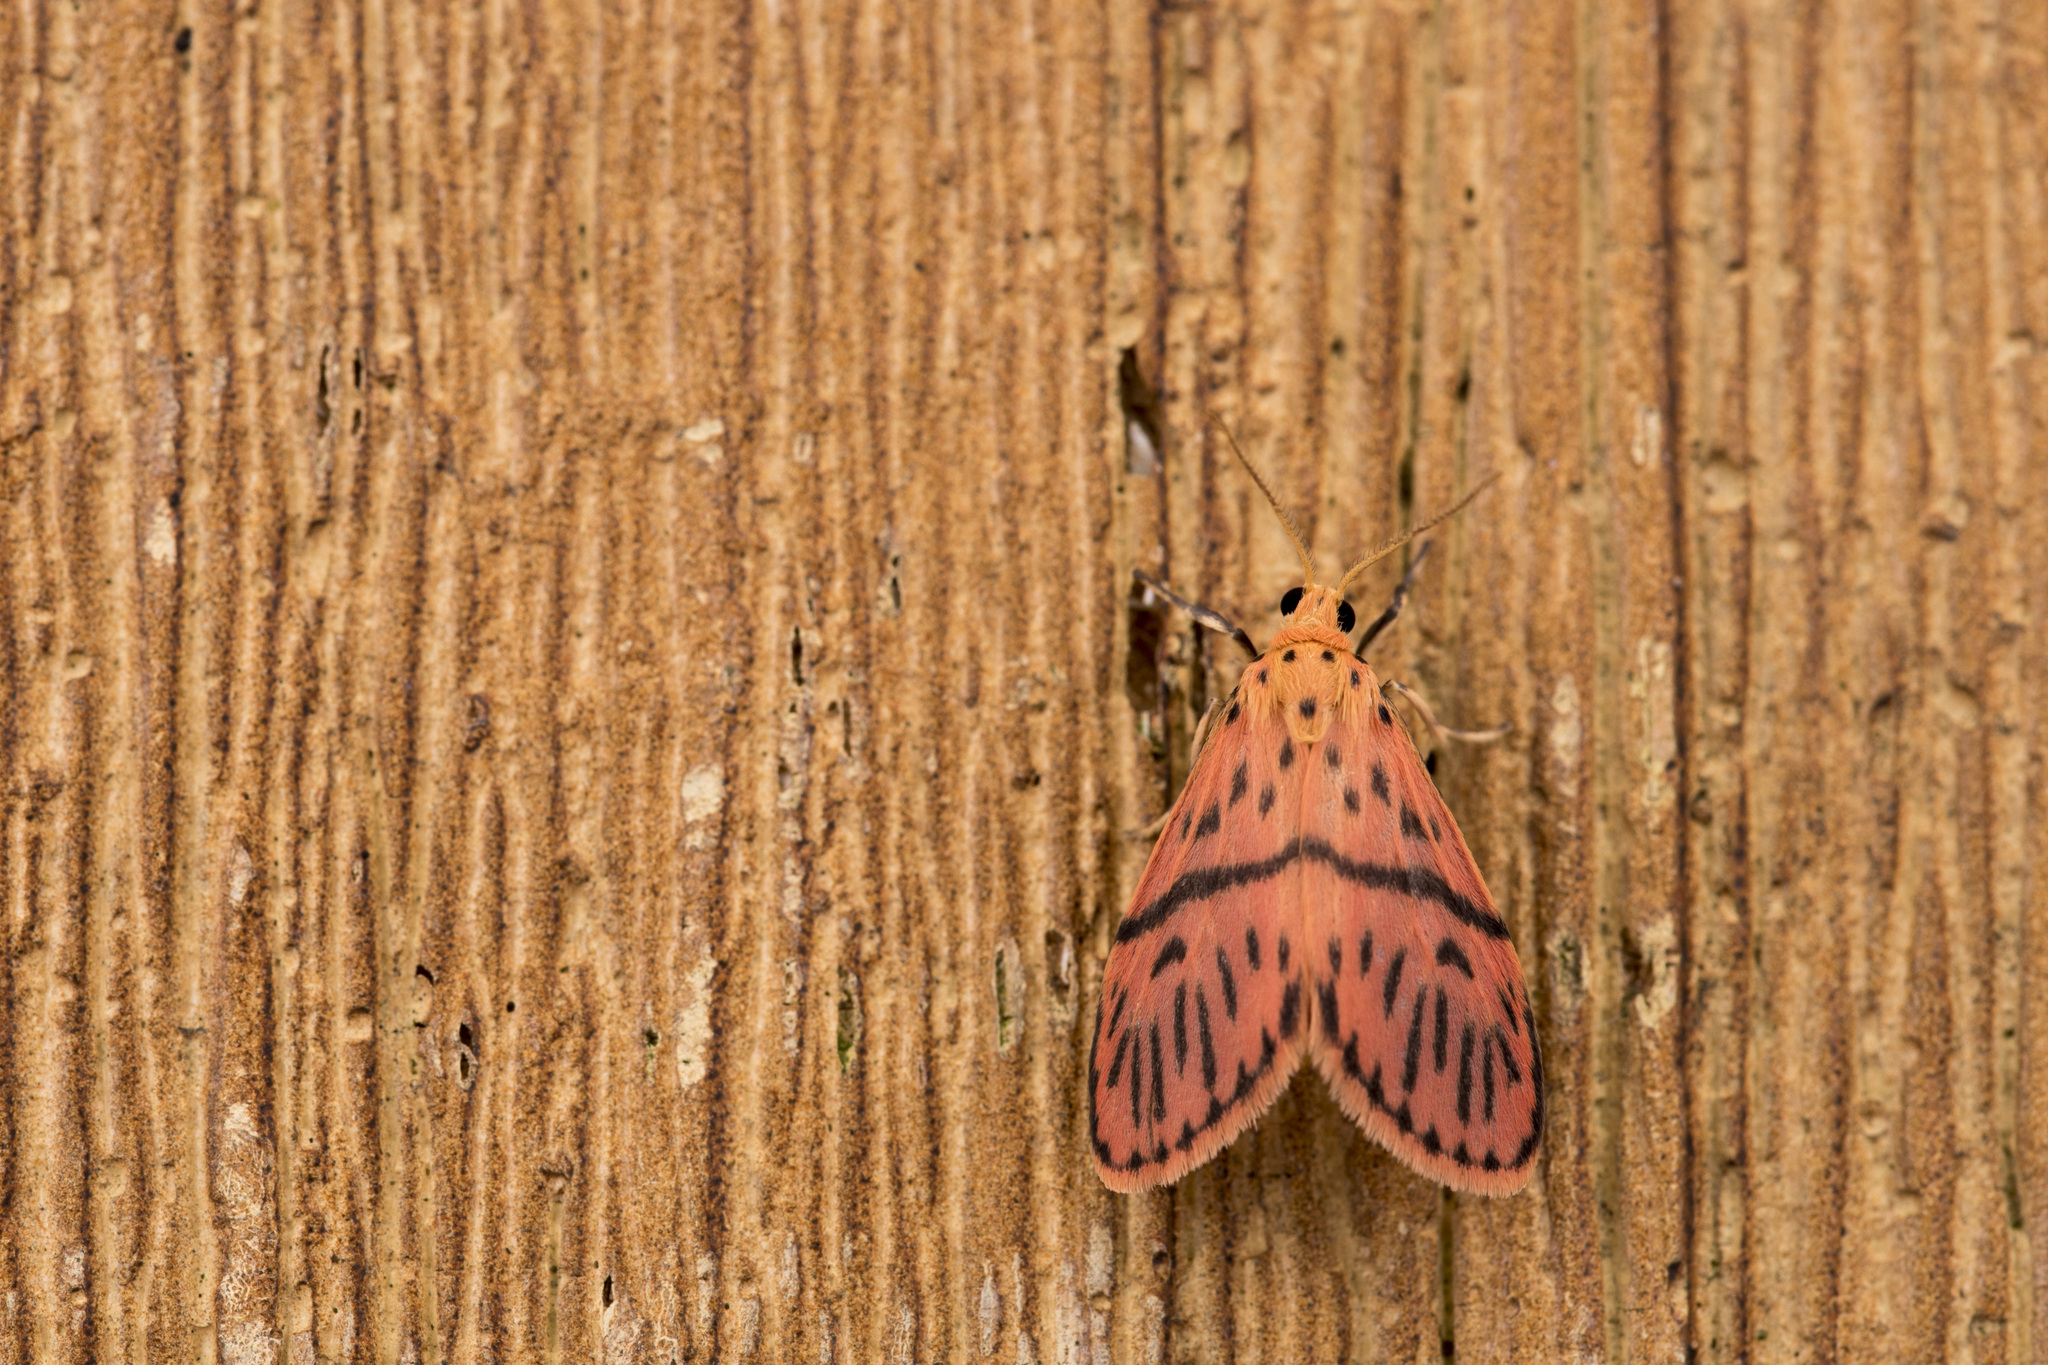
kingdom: Animalia
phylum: Arthropoda
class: Insecta
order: Lepidoptera
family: Erebidae
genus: Miltochrista
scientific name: Miltochrista wenchiyehi
